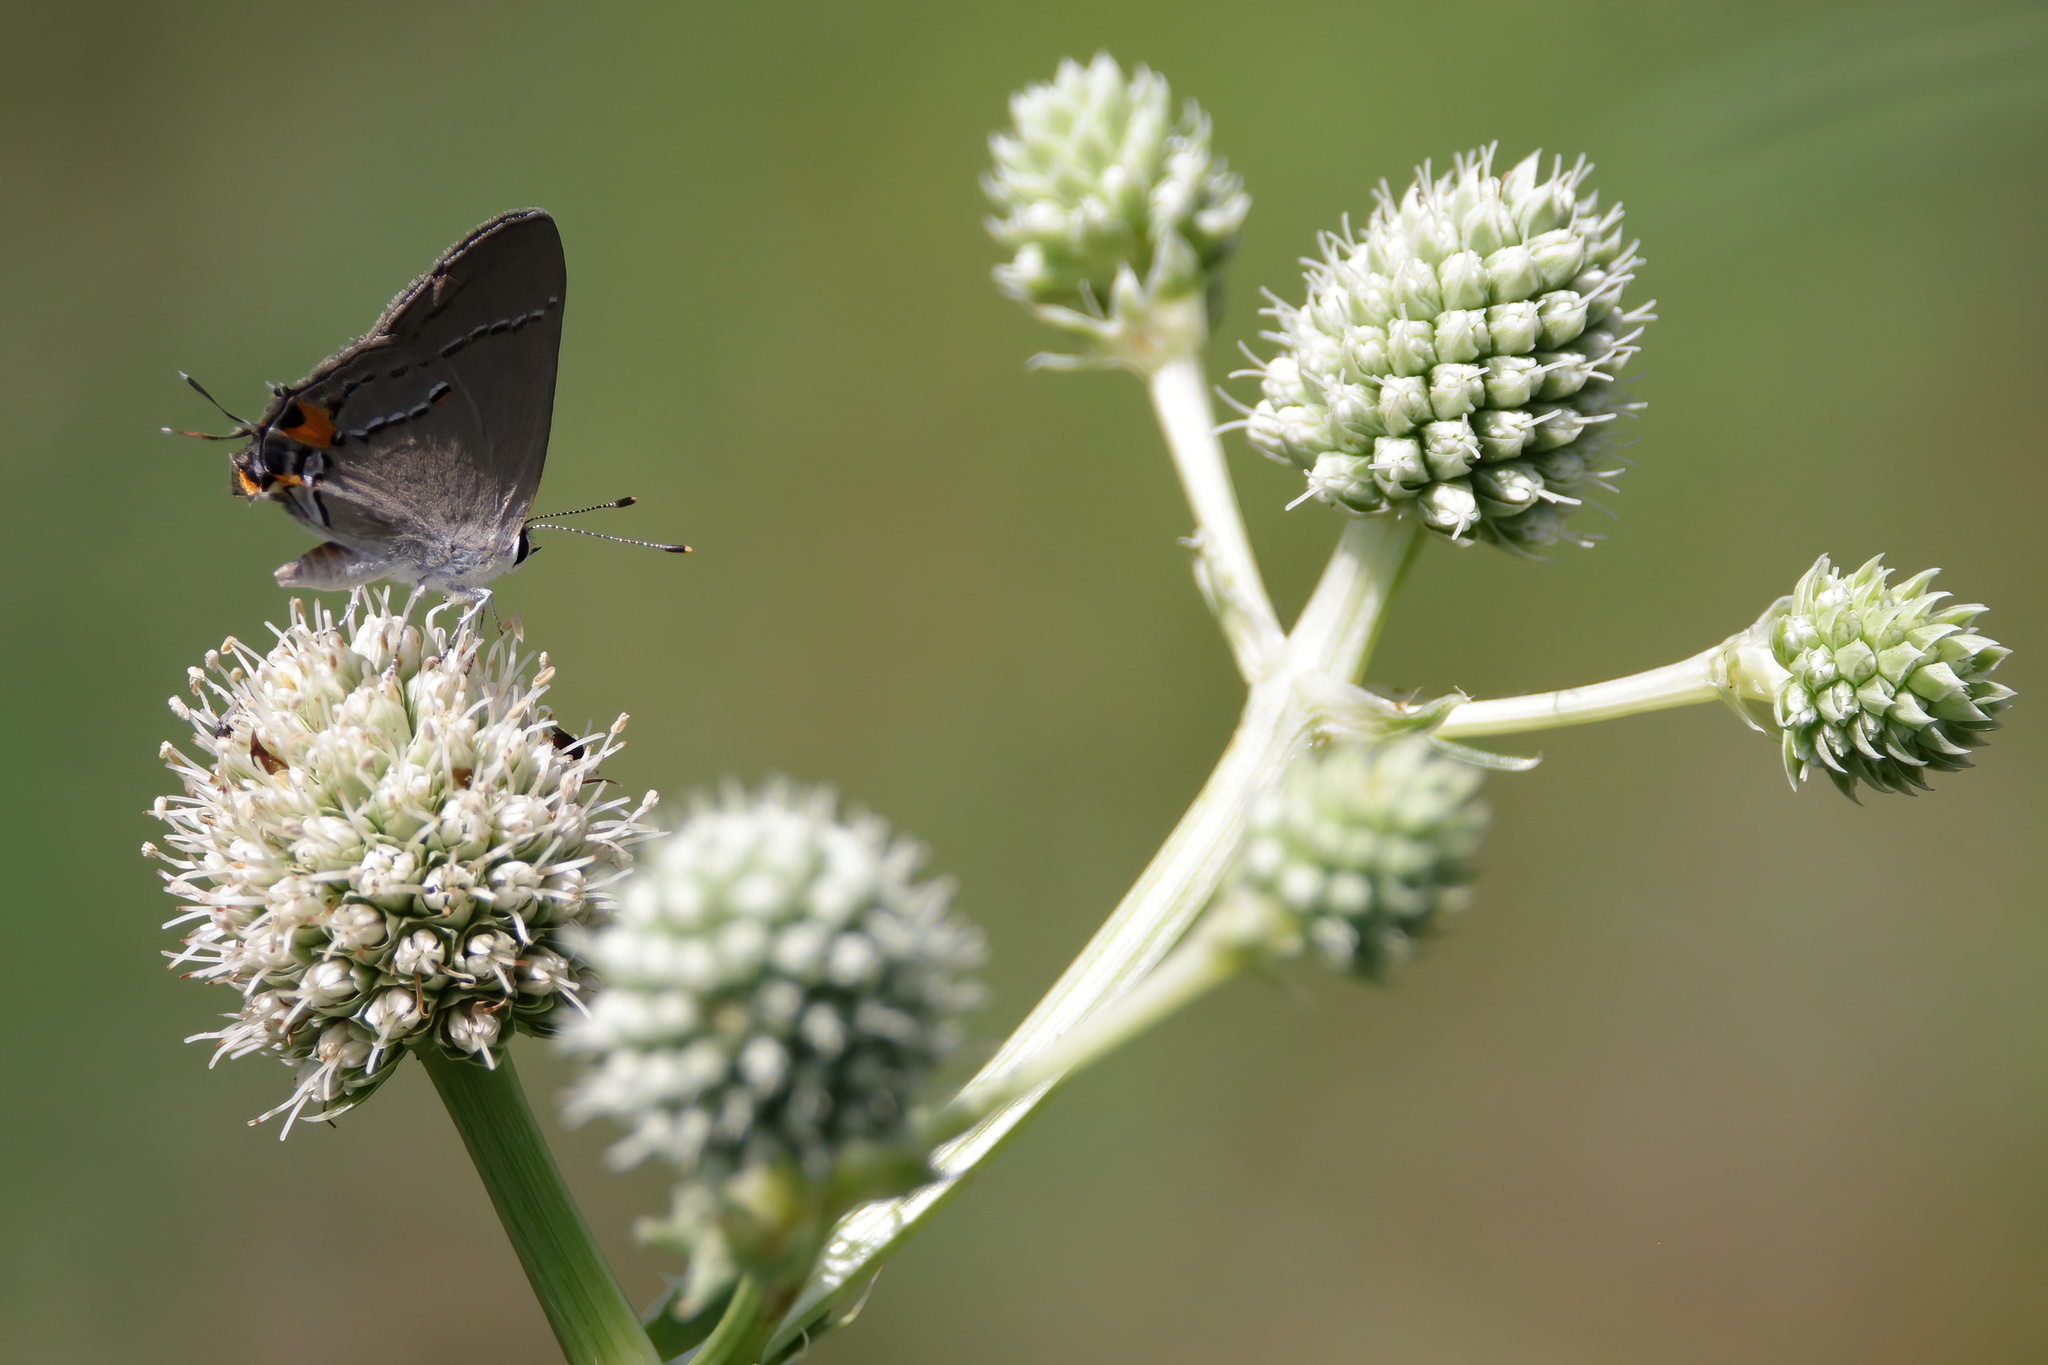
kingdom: Animalia
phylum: Arthropoda
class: Insecta
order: Lepidoptera
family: Lycaenidae
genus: Strymon
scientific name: Strymon melinus
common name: Gray hairstreak
